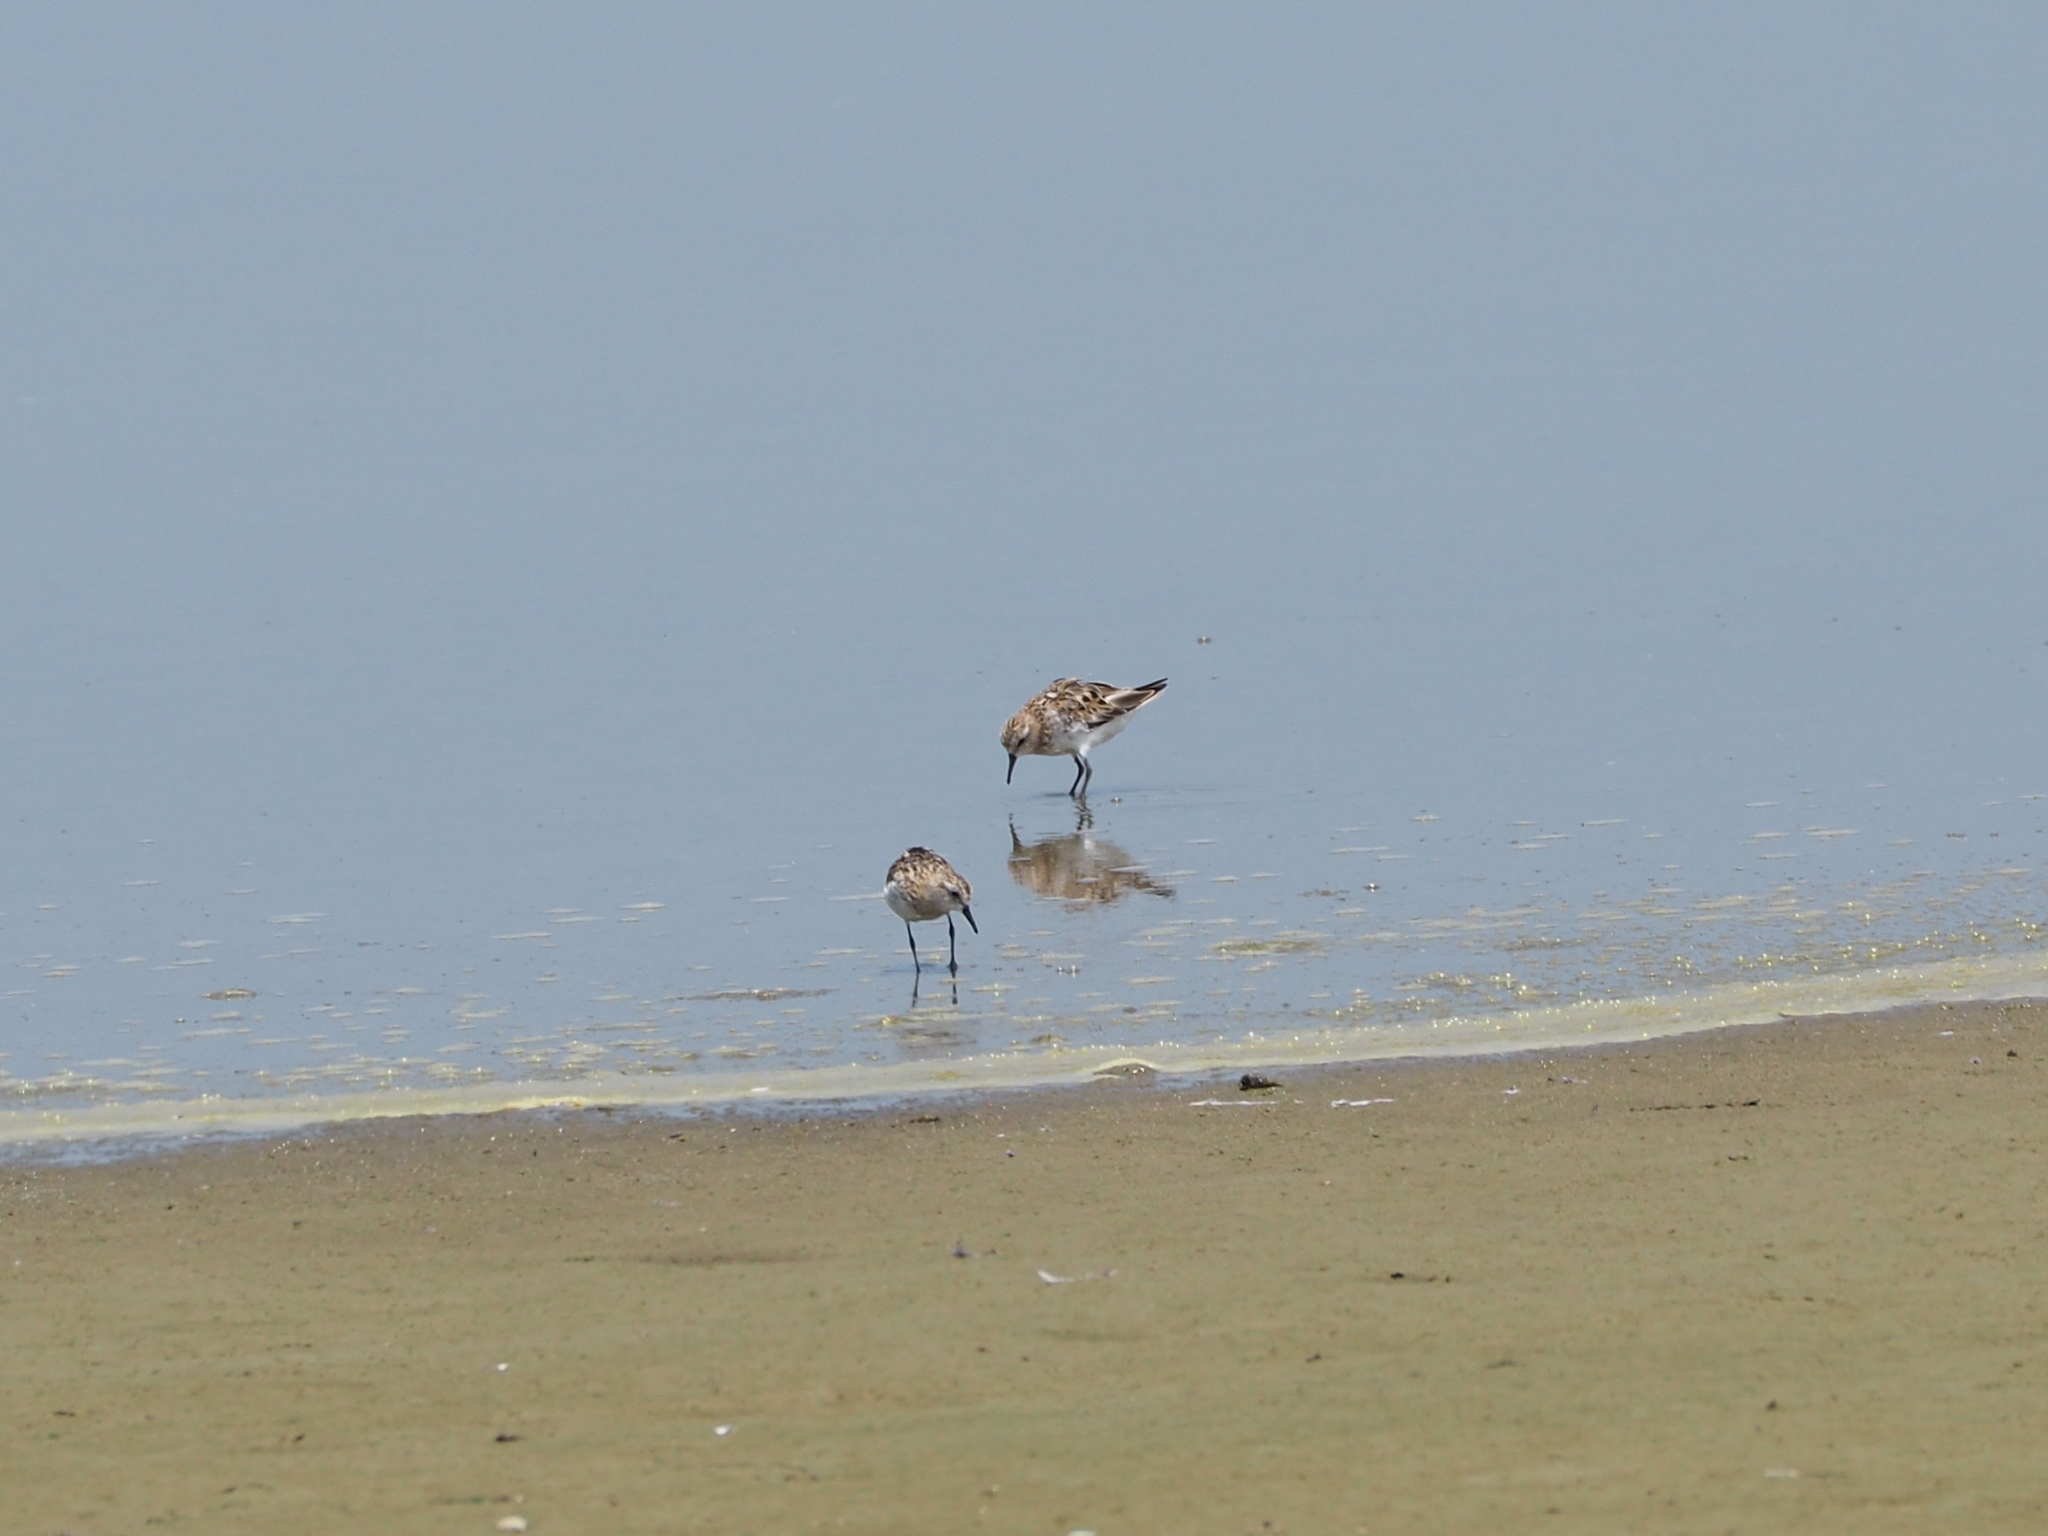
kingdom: Animalia
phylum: Chordata
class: Aves
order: Charadriiformes
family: Scolopacidae
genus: Calidris
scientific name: Calidris ruficollis
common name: Red-necked stint
